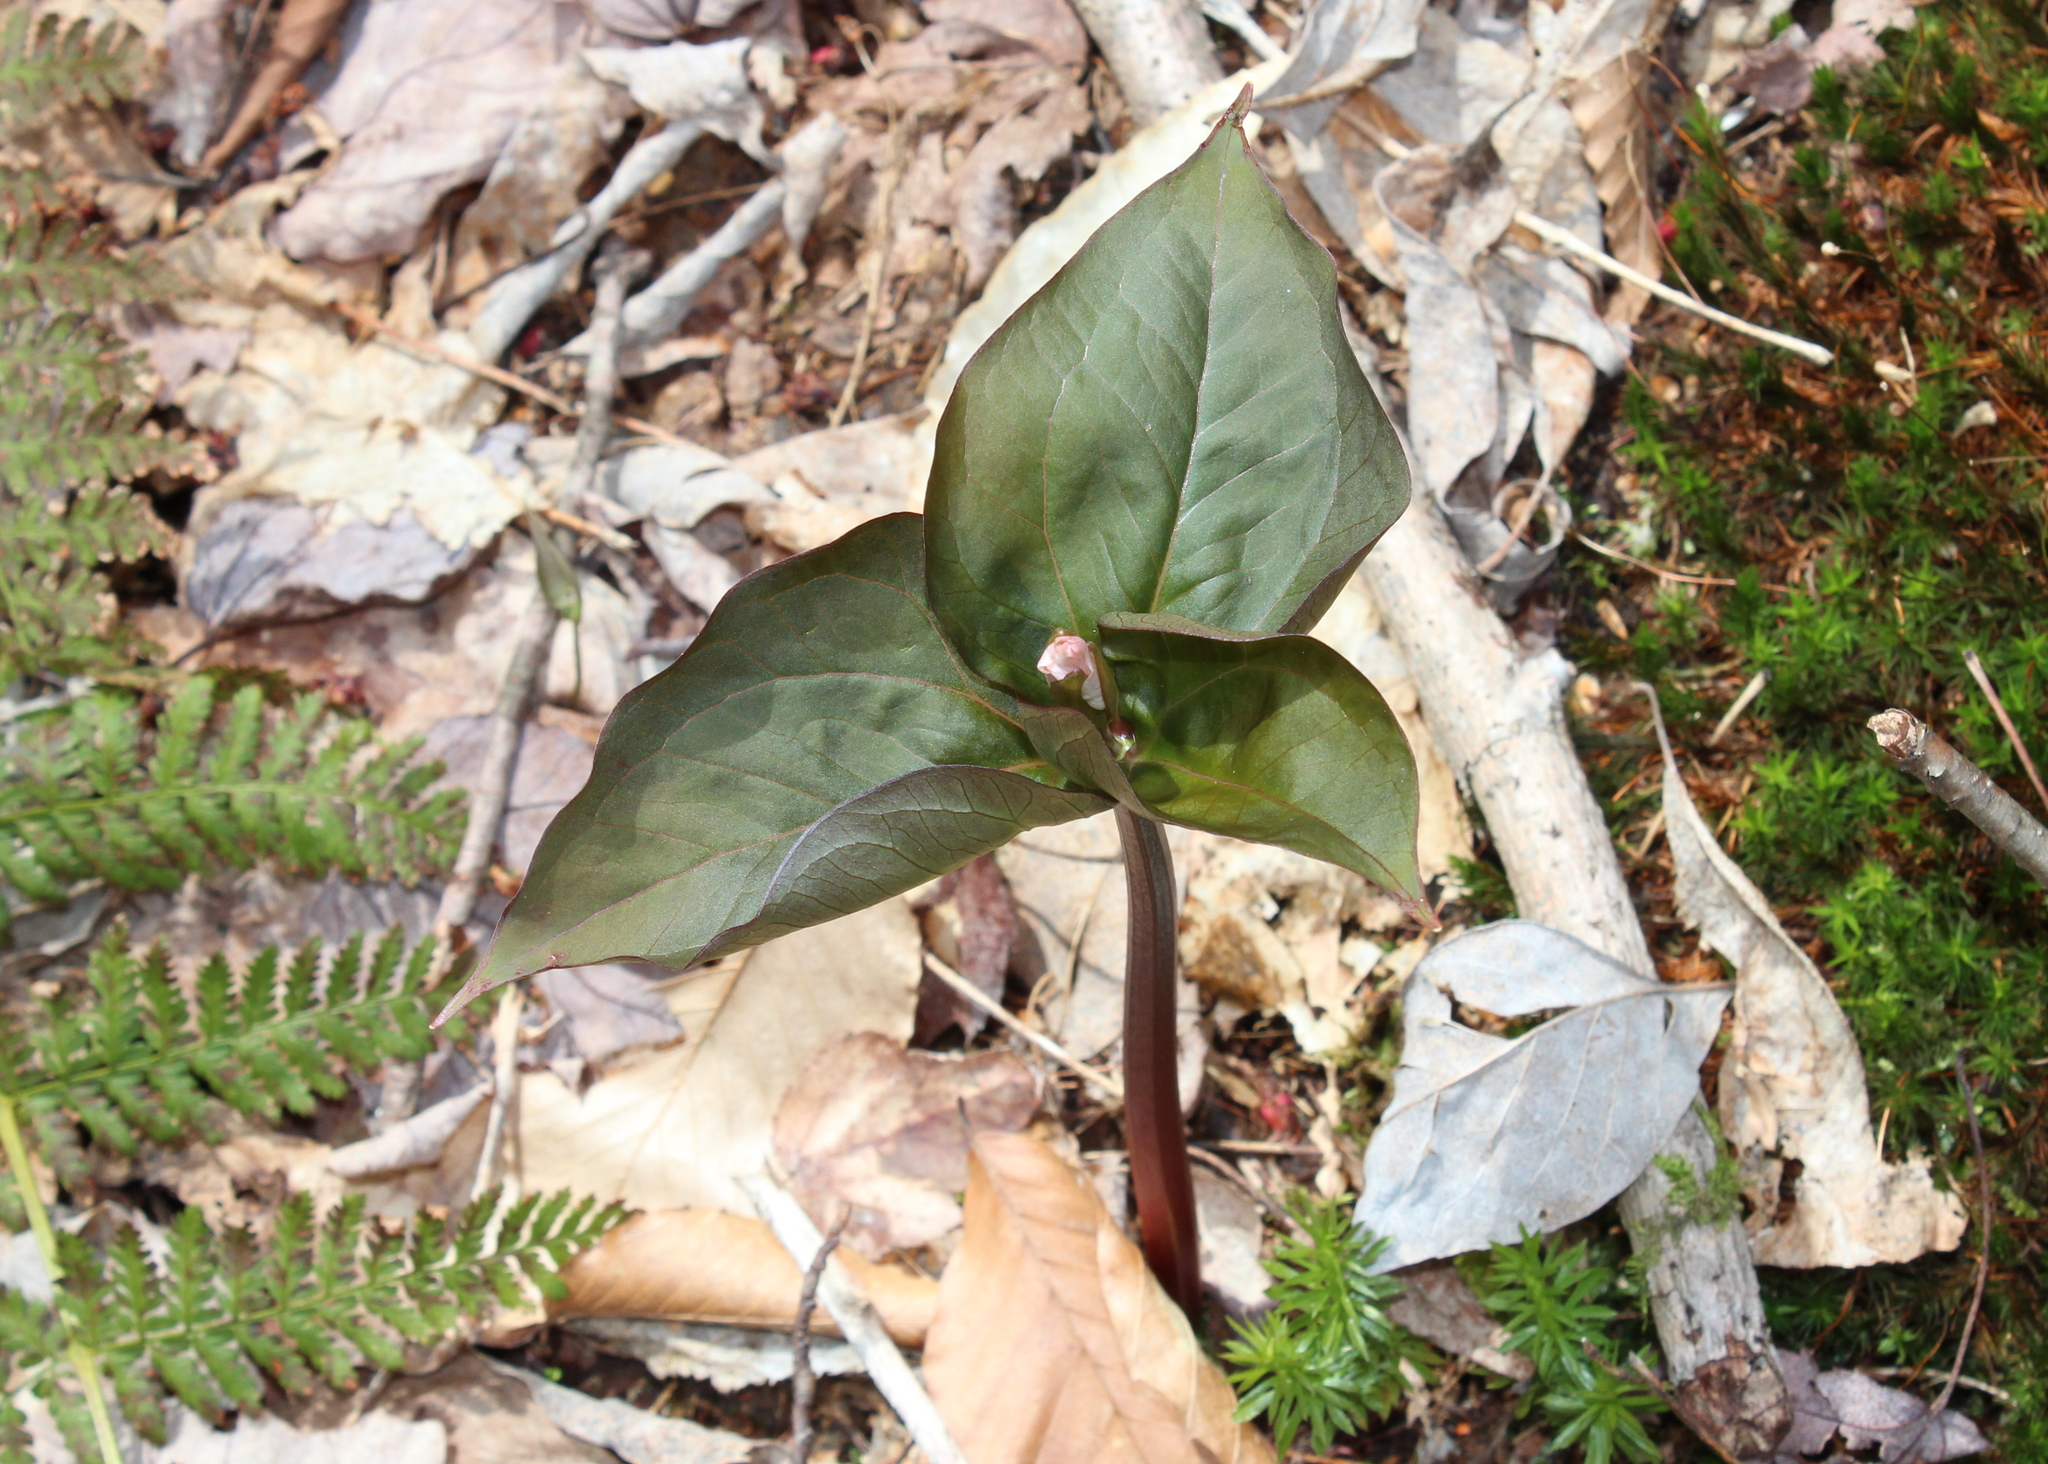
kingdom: Plantae
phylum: Tracheophyta
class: Liliopsida
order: Liliales
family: Melanthiaceae
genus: Trillium
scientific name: Trillium undulatum
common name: Paint trillium
